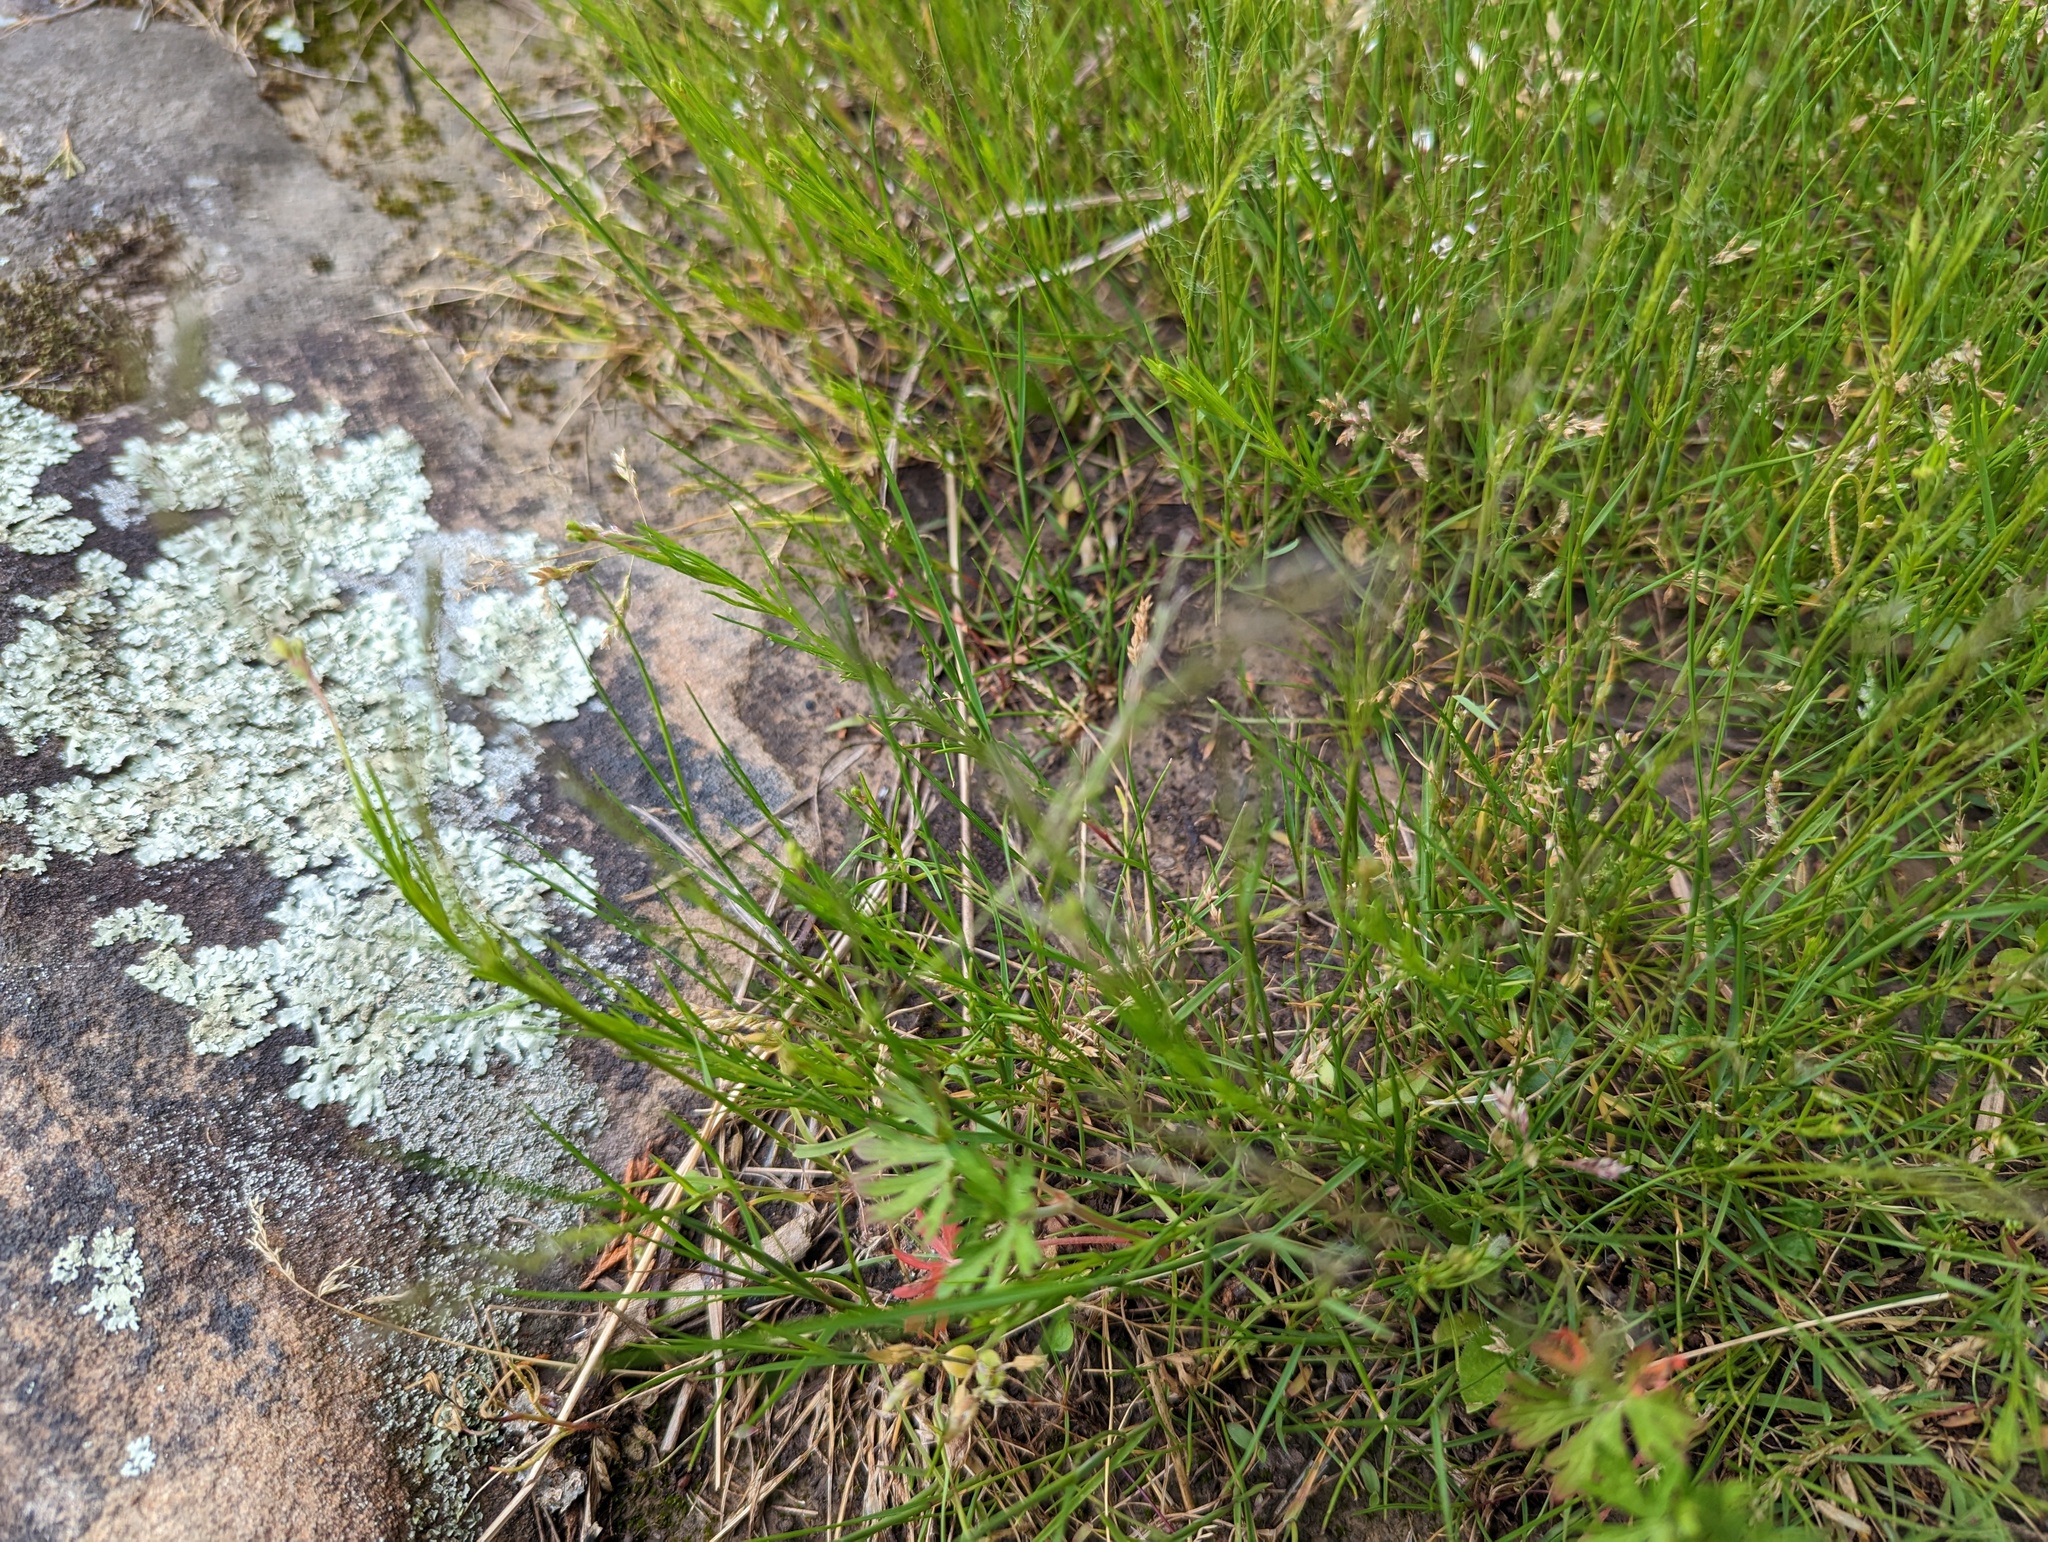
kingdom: Plantae
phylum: Tracheophyta
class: Liliopsida
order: Poales
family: Poaceae
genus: Agrostis
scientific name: Agrostis elliottiana
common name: Elliott's bent
